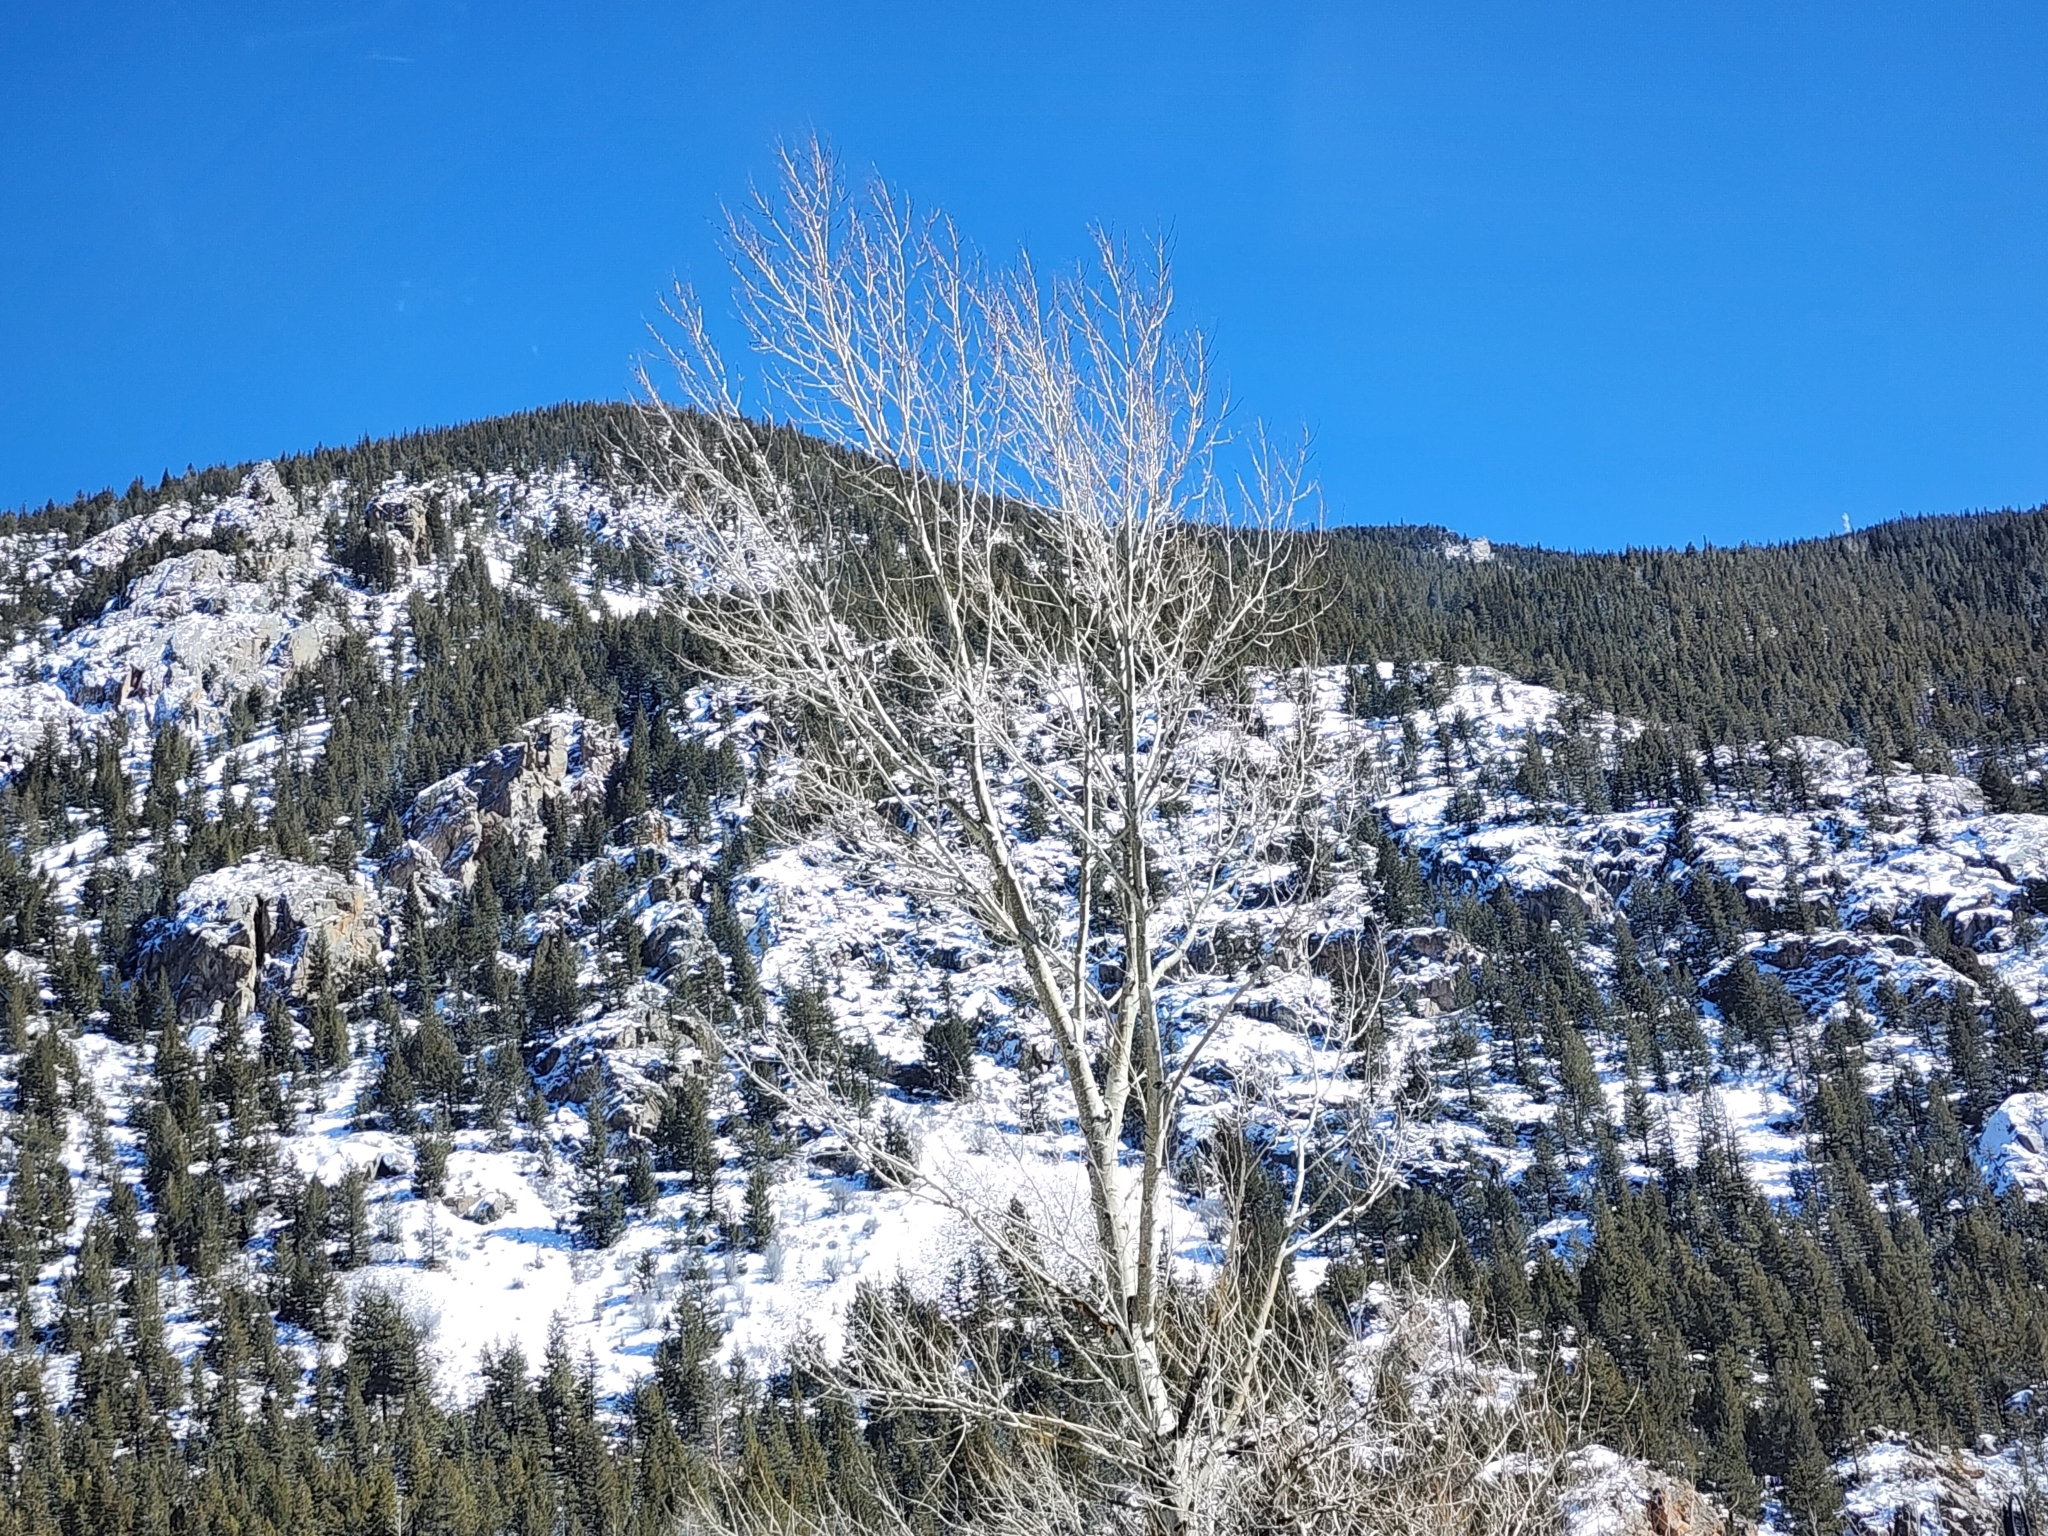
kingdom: Plantae
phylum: Tracheophyta
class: Magnoliopsida
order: Malpighiales
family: Salicaceae
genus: Populus
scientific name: Populus tremuloides
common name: Quaking aspen
